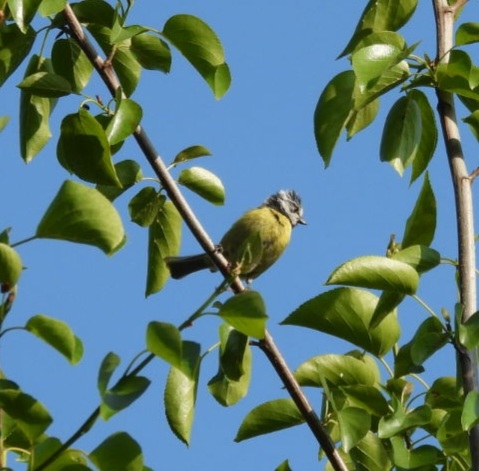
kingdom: Animalia
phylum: Chordata
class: Aves
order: Passeriformes
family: Paridae
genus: Cyanistes
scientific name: Cyanistes caeruleus
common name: Eurasian blue tit
